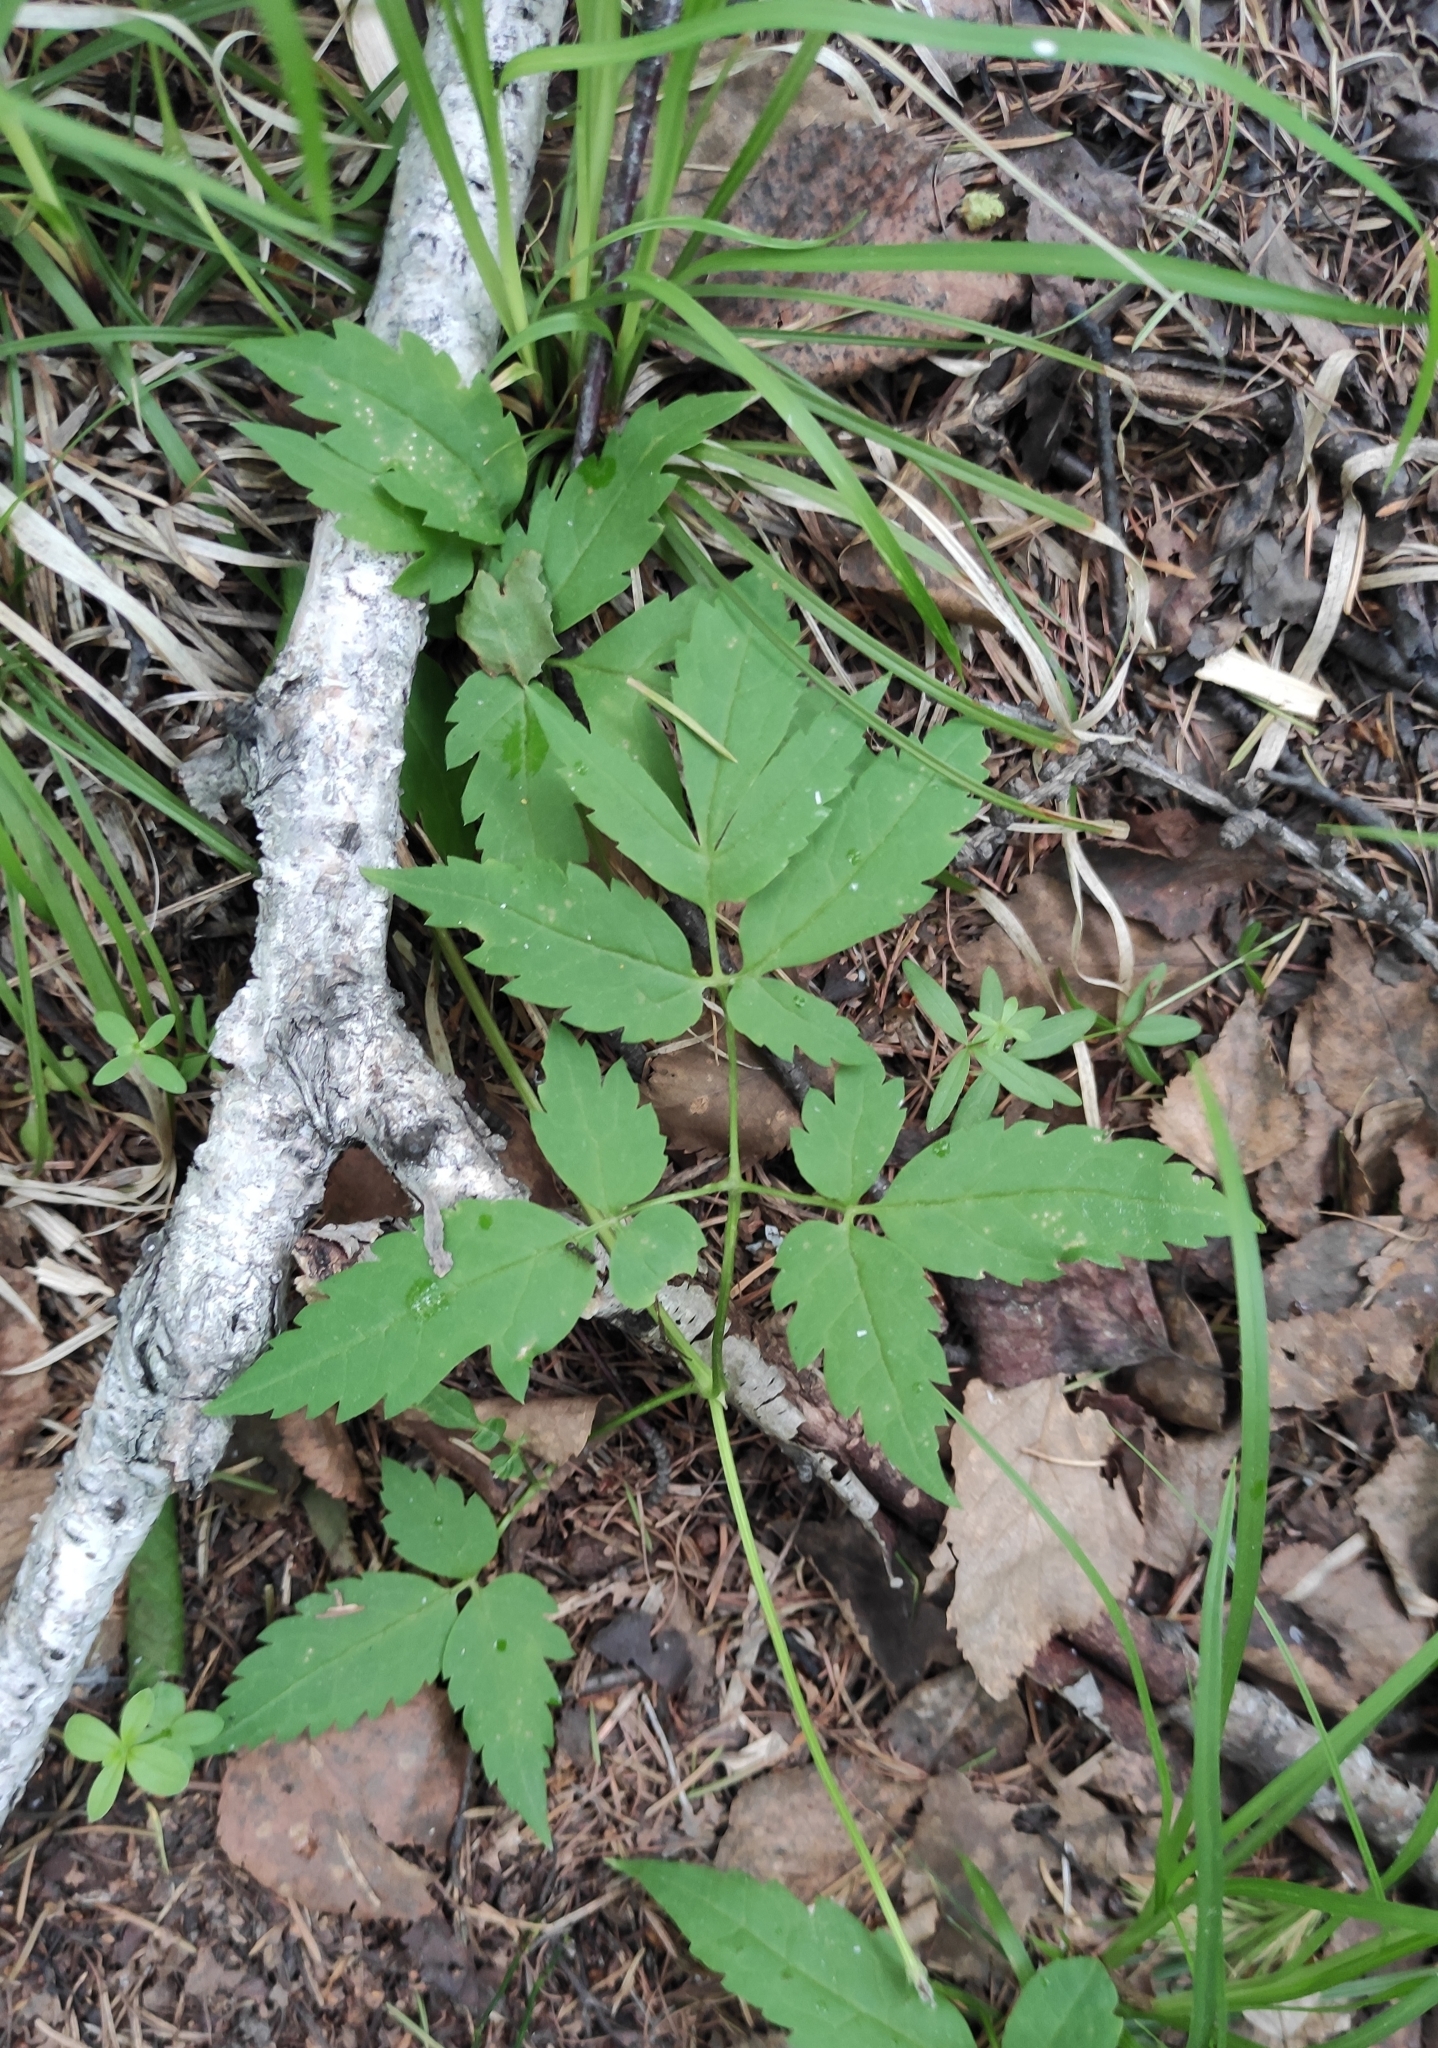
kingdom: Plantae
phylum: Tracheophyta
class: Magnoliopsida
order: Ranunculales
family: Ranunculaceae
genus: Clematis
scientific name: Clematis sibirica
